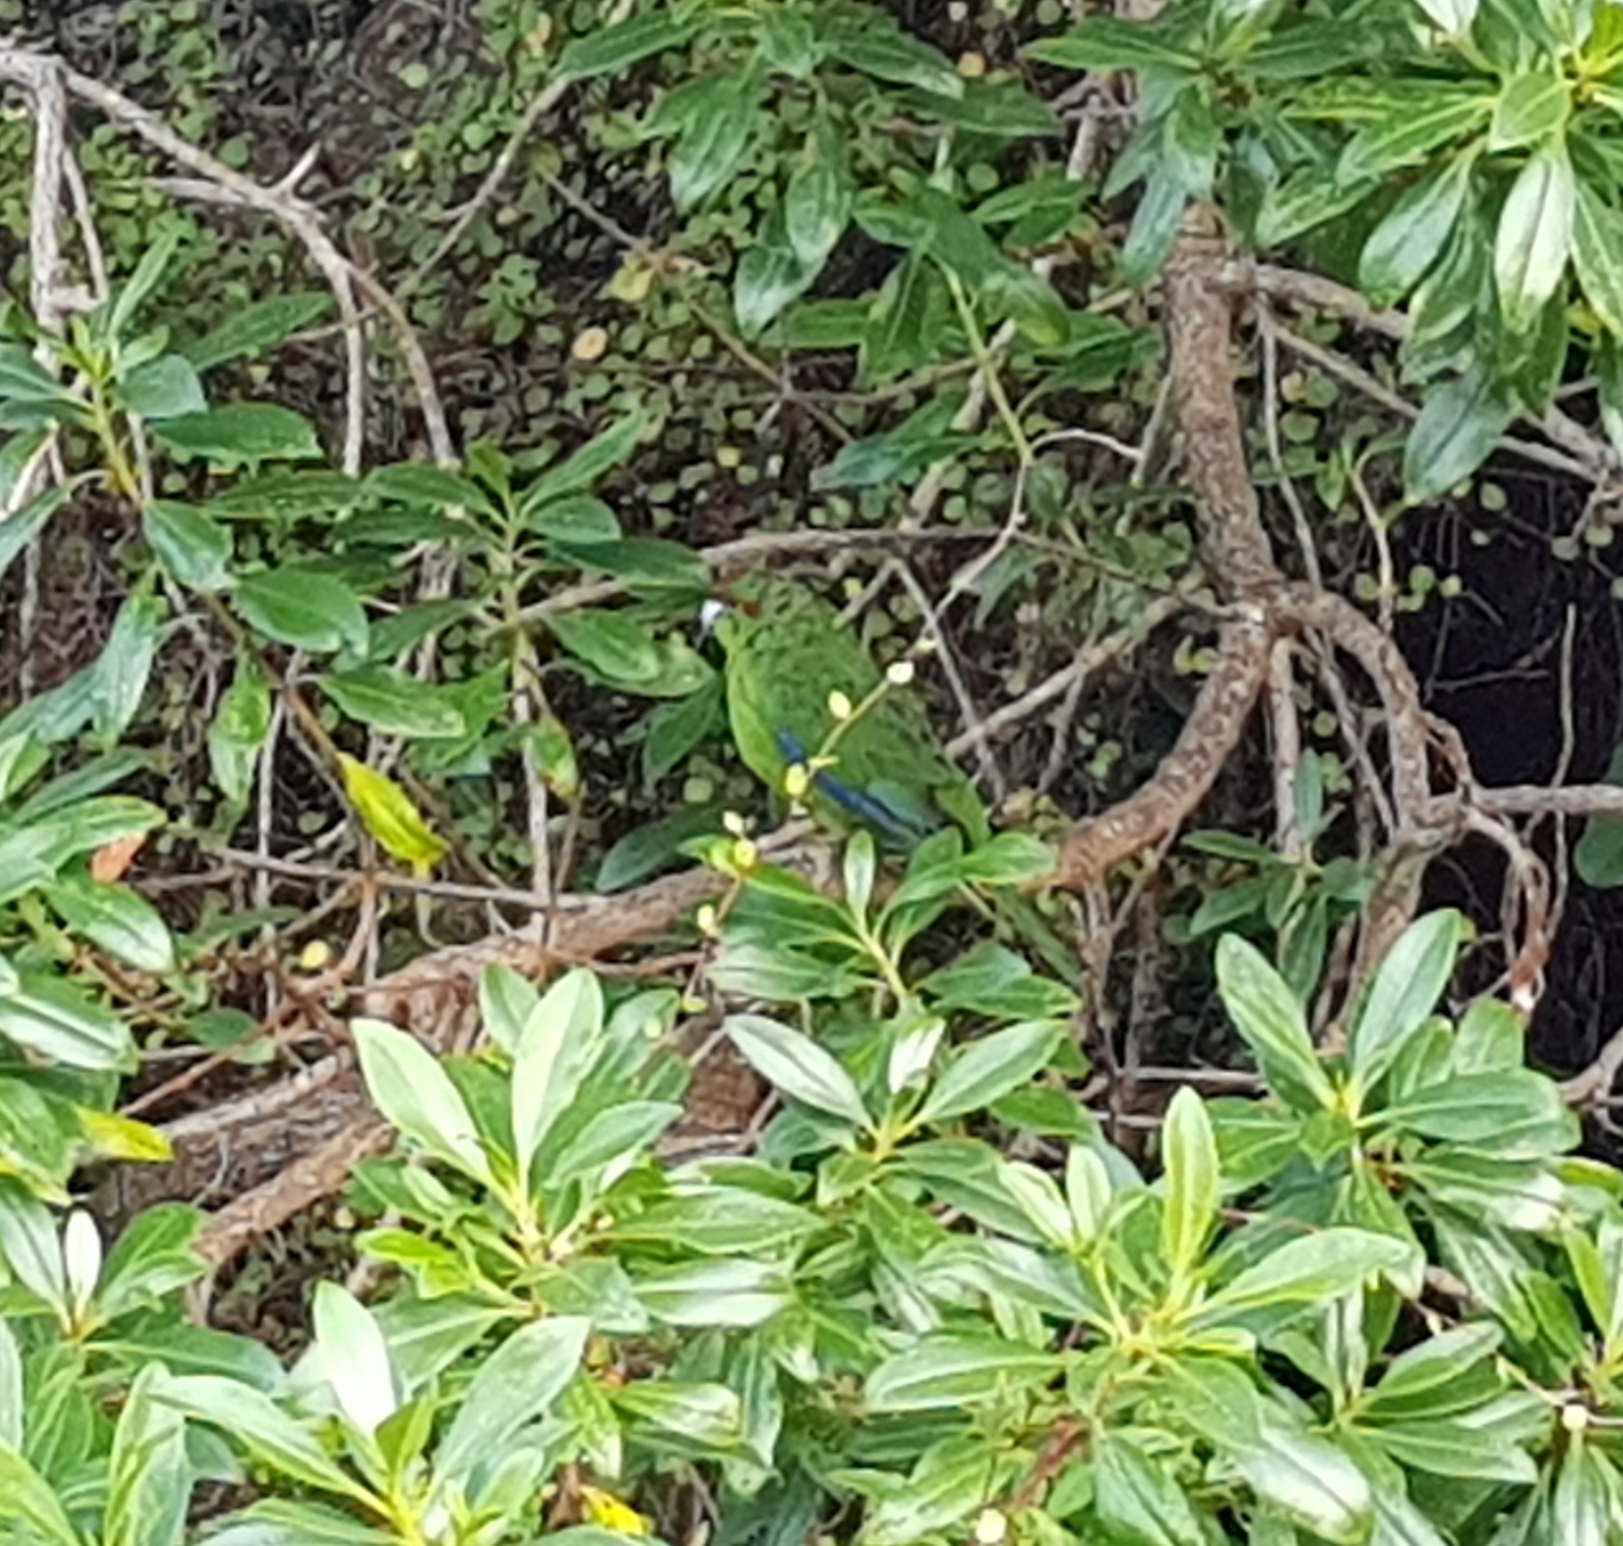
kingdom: Animalia
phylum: Chordata
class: Aves
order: Psittaciformes
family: Psittacidae
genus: Cyanoramphus
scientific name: Cyanoramphus novaezelandiae
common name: Red-fronted parakeet
